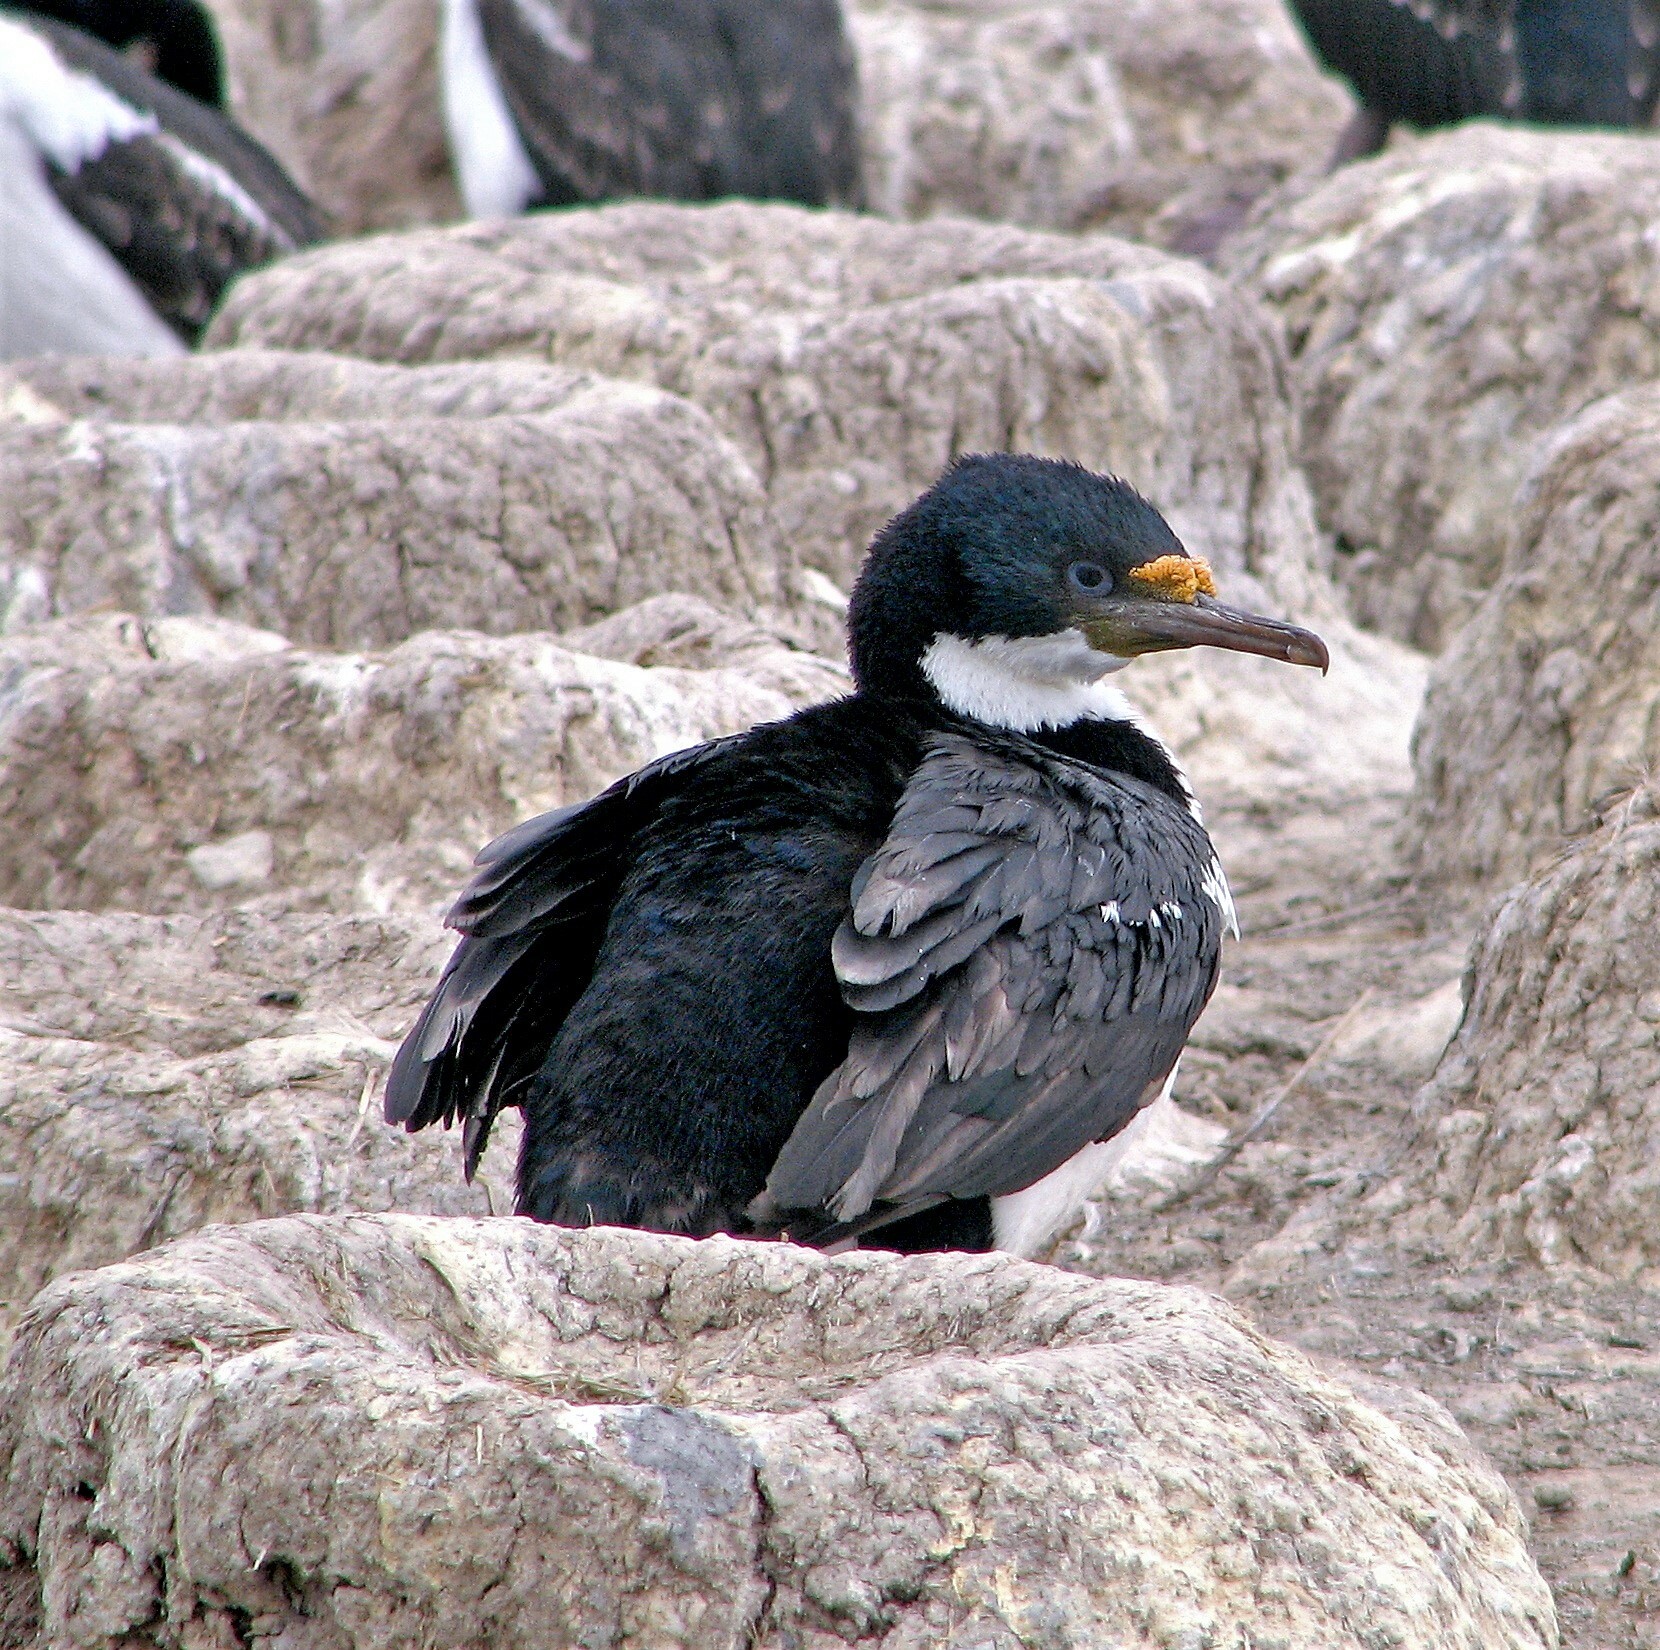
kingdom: Animalia
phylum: Chordata
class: Aves
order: Suliformes
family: Phalacrocoracidae
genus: Leucocarbo
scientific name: Leucocarbo atriceps
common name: Imperial shag
